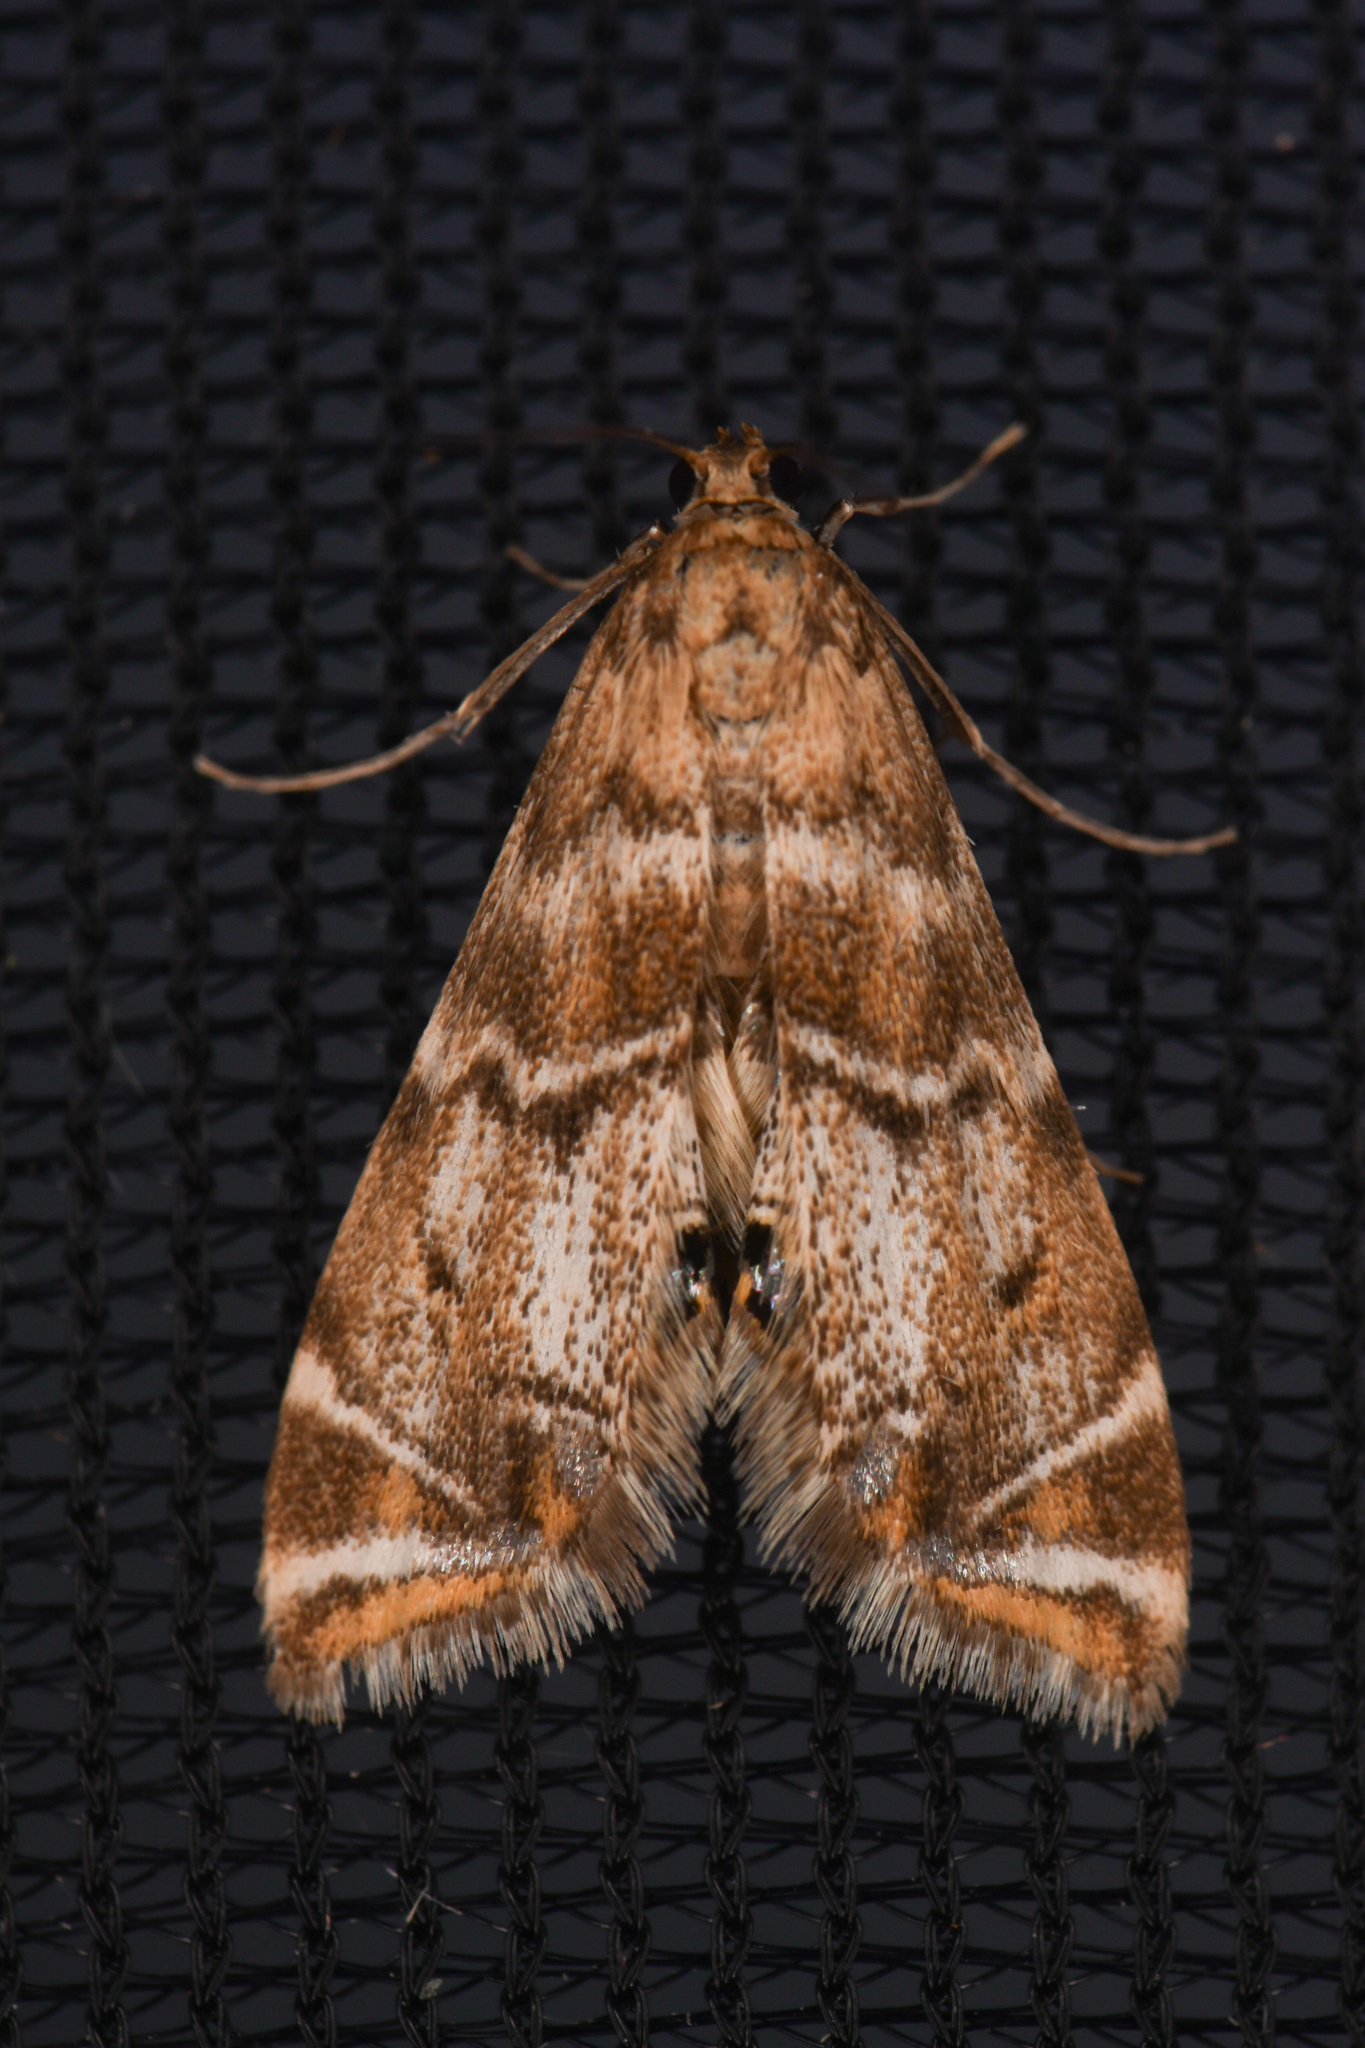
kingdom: Animalia
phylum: Arthropoda
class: Insecta
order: Lepidoptera
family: Crambidae
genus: Petrophila
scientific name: Petrophila confusalis
